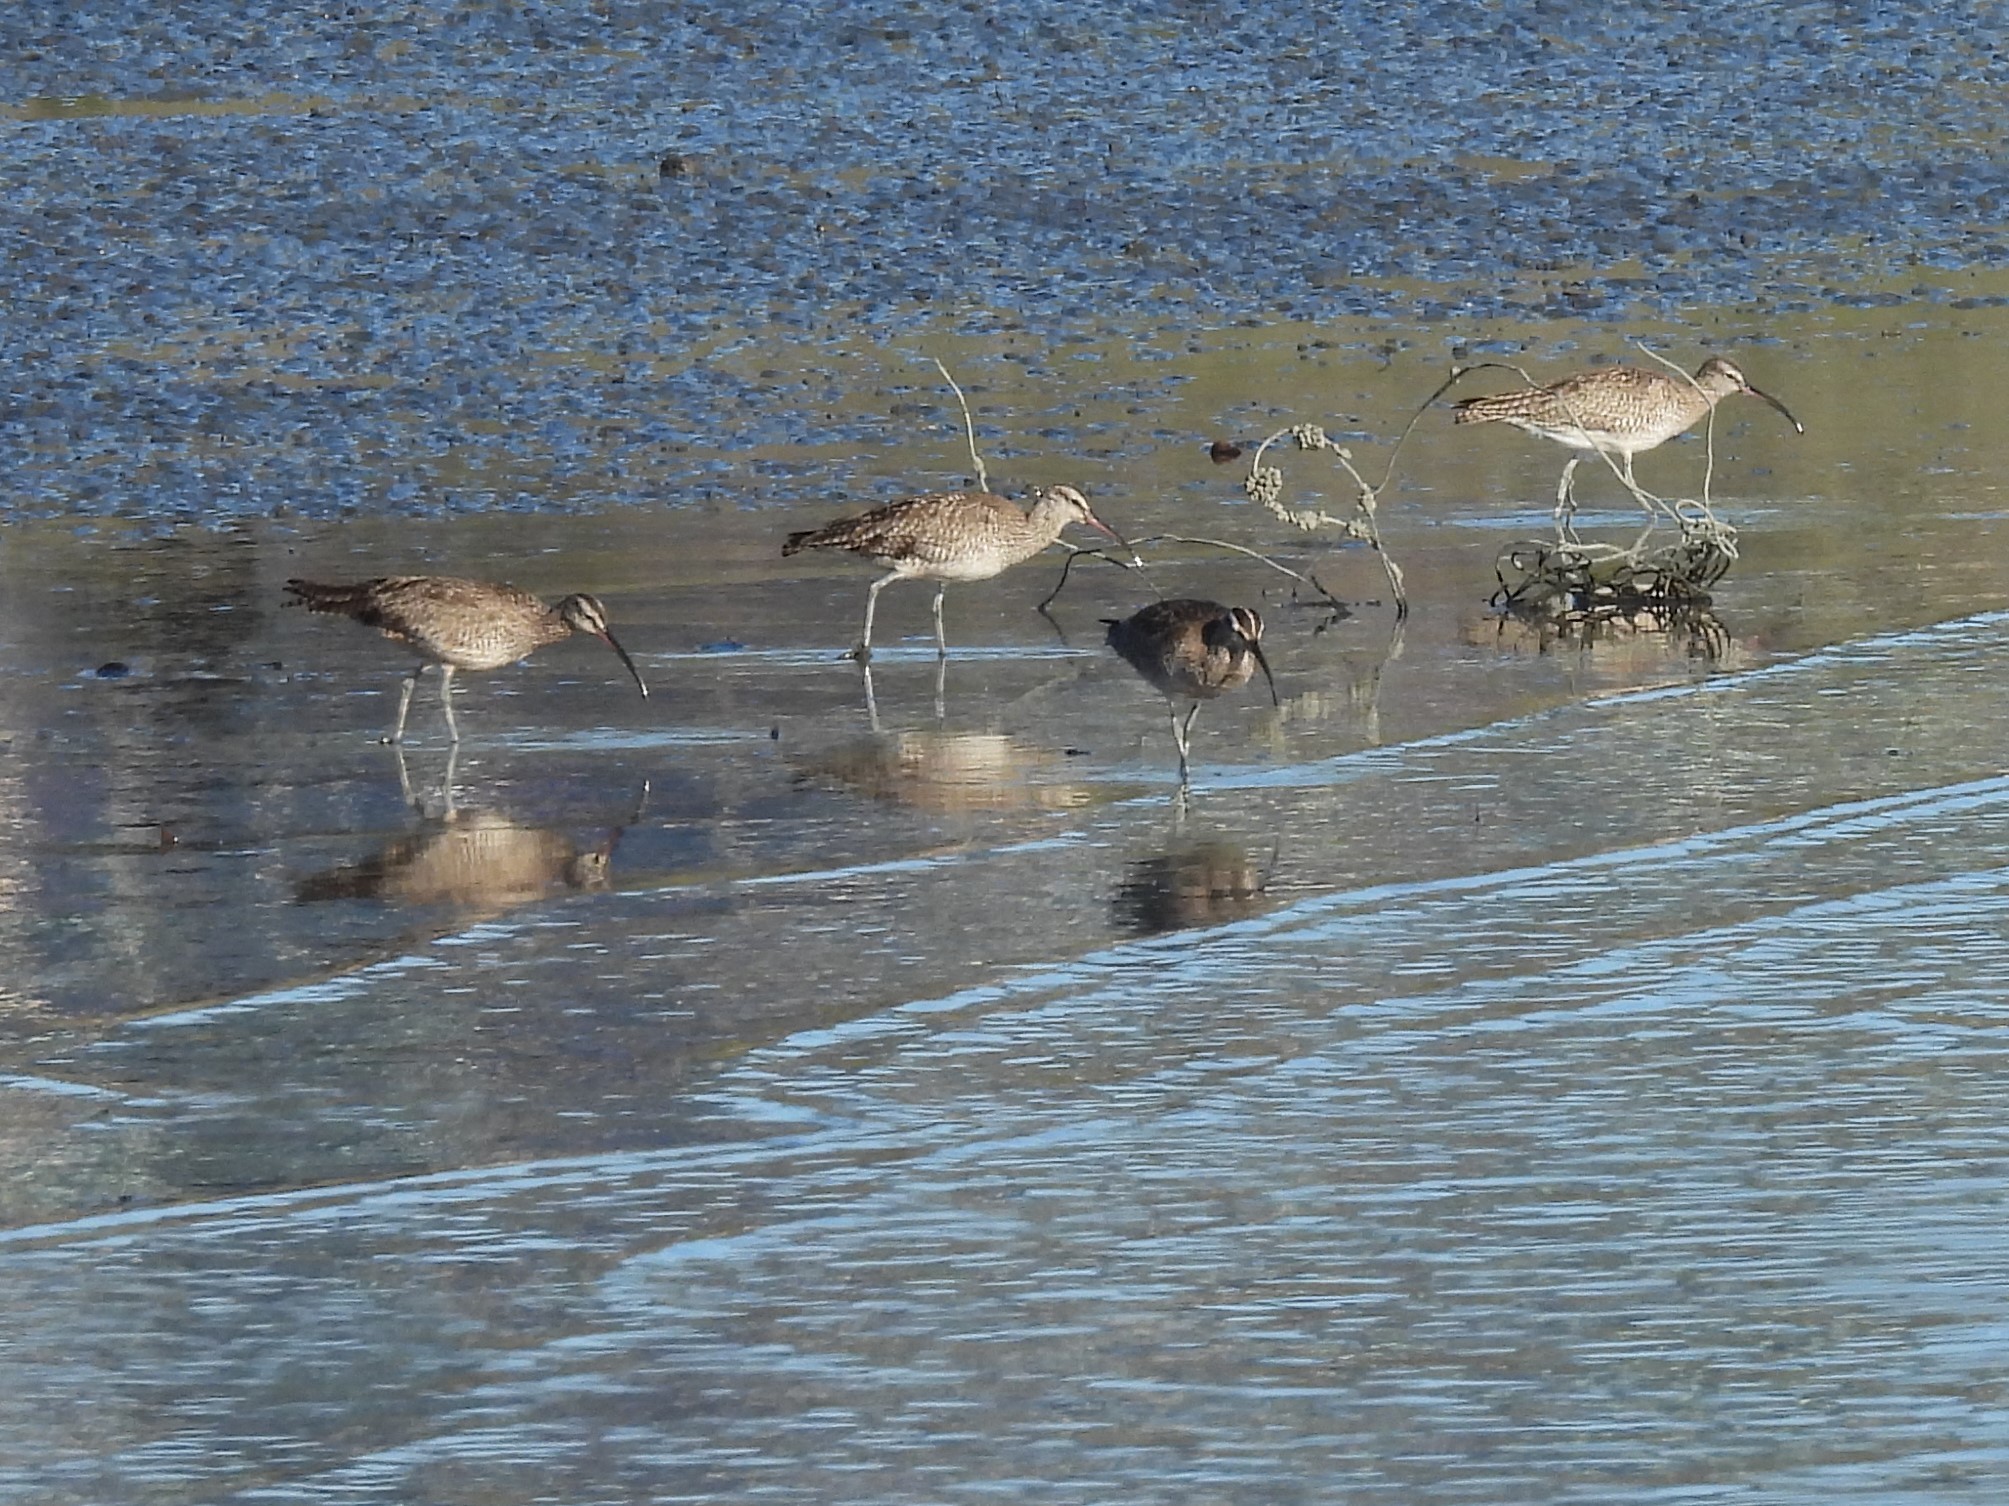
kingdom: Animalia
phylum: Chordata
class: Aves
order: Charadriiformes
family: Scolopacidae
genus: Numenius
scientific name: Numenius phaeopus
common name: Whimbrel
